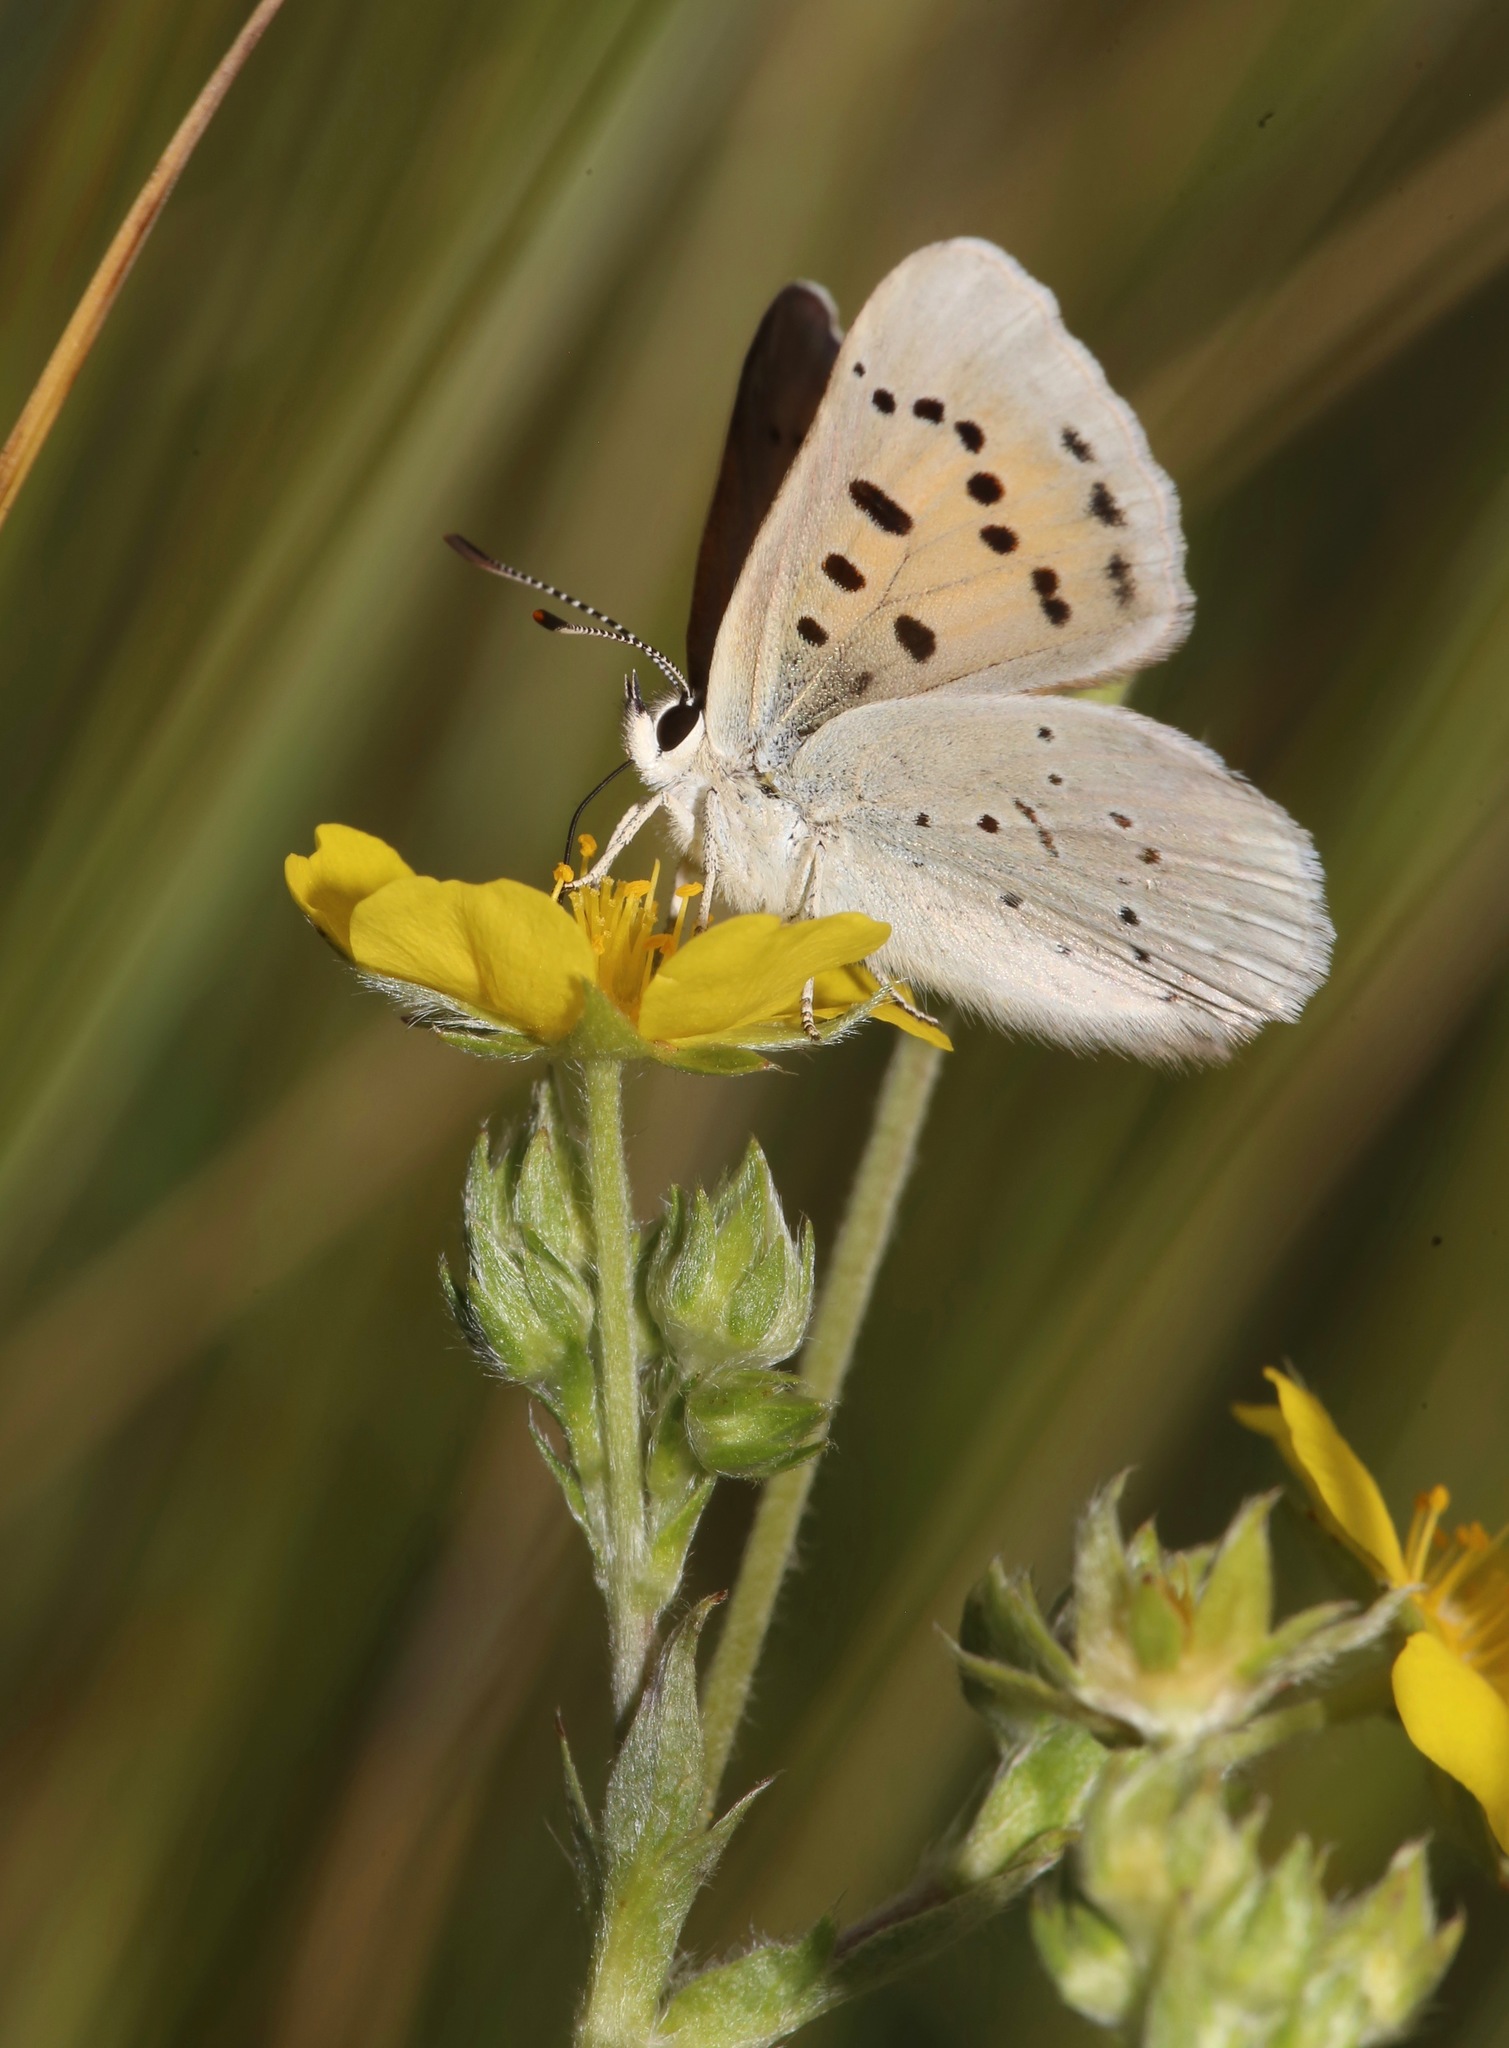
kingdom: Animalia
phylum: Arthropoda
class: Insecta
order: Lepidoptera
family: Lycaenidae
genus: Tharsalea
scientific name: Tharsalea rubidus
